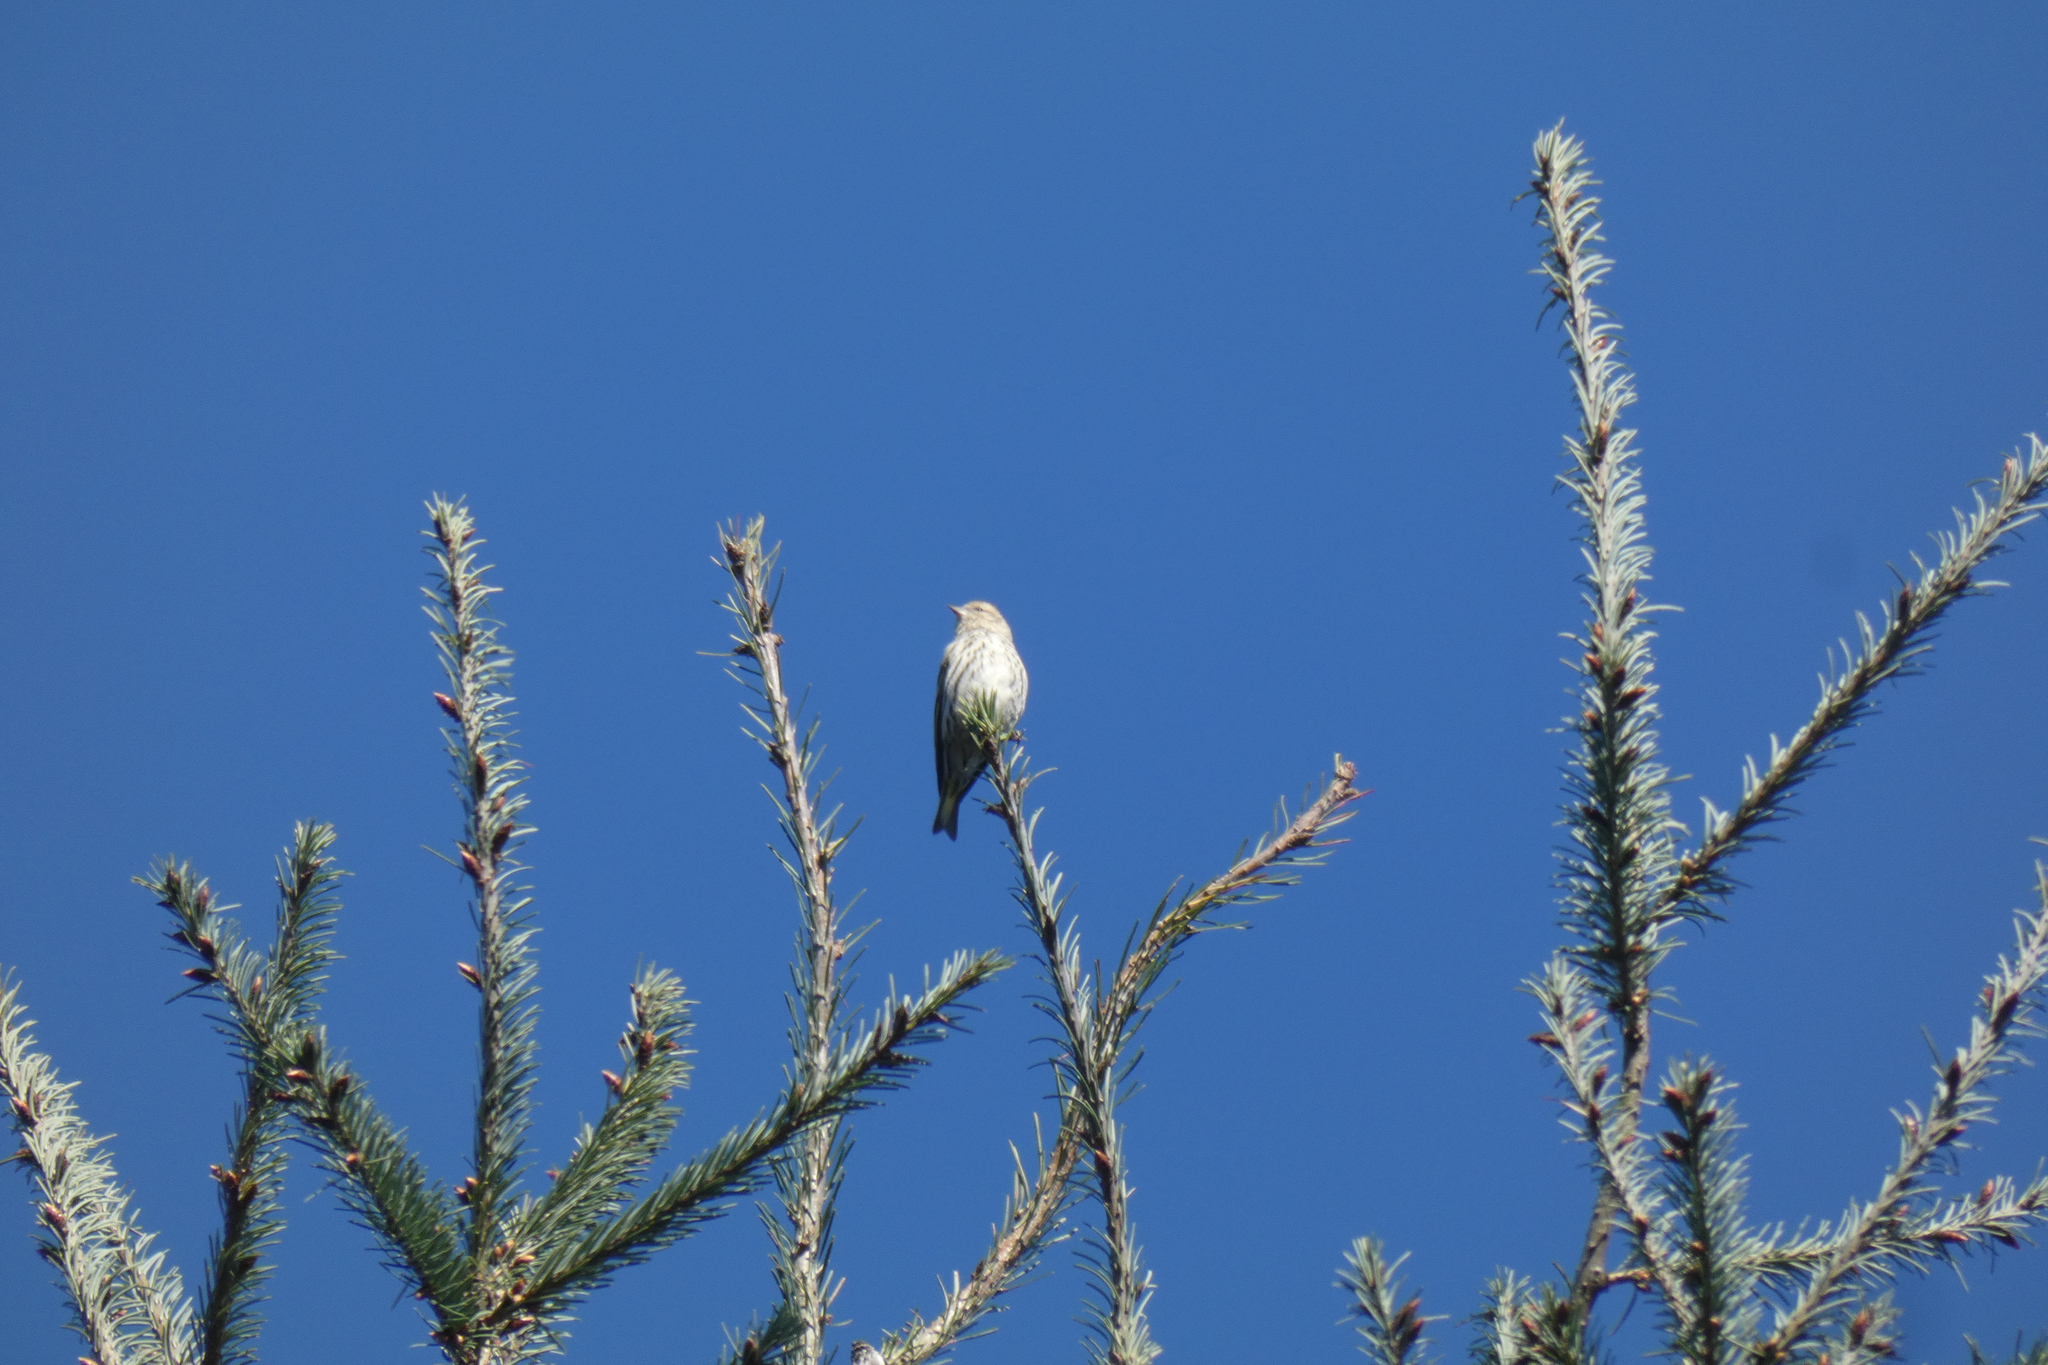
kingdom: Animalia
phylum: Chordata
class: Aves
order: Passeriformes
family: Fringillidae
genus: Spinus
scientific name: Spinus pinus
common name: Pine siskin
